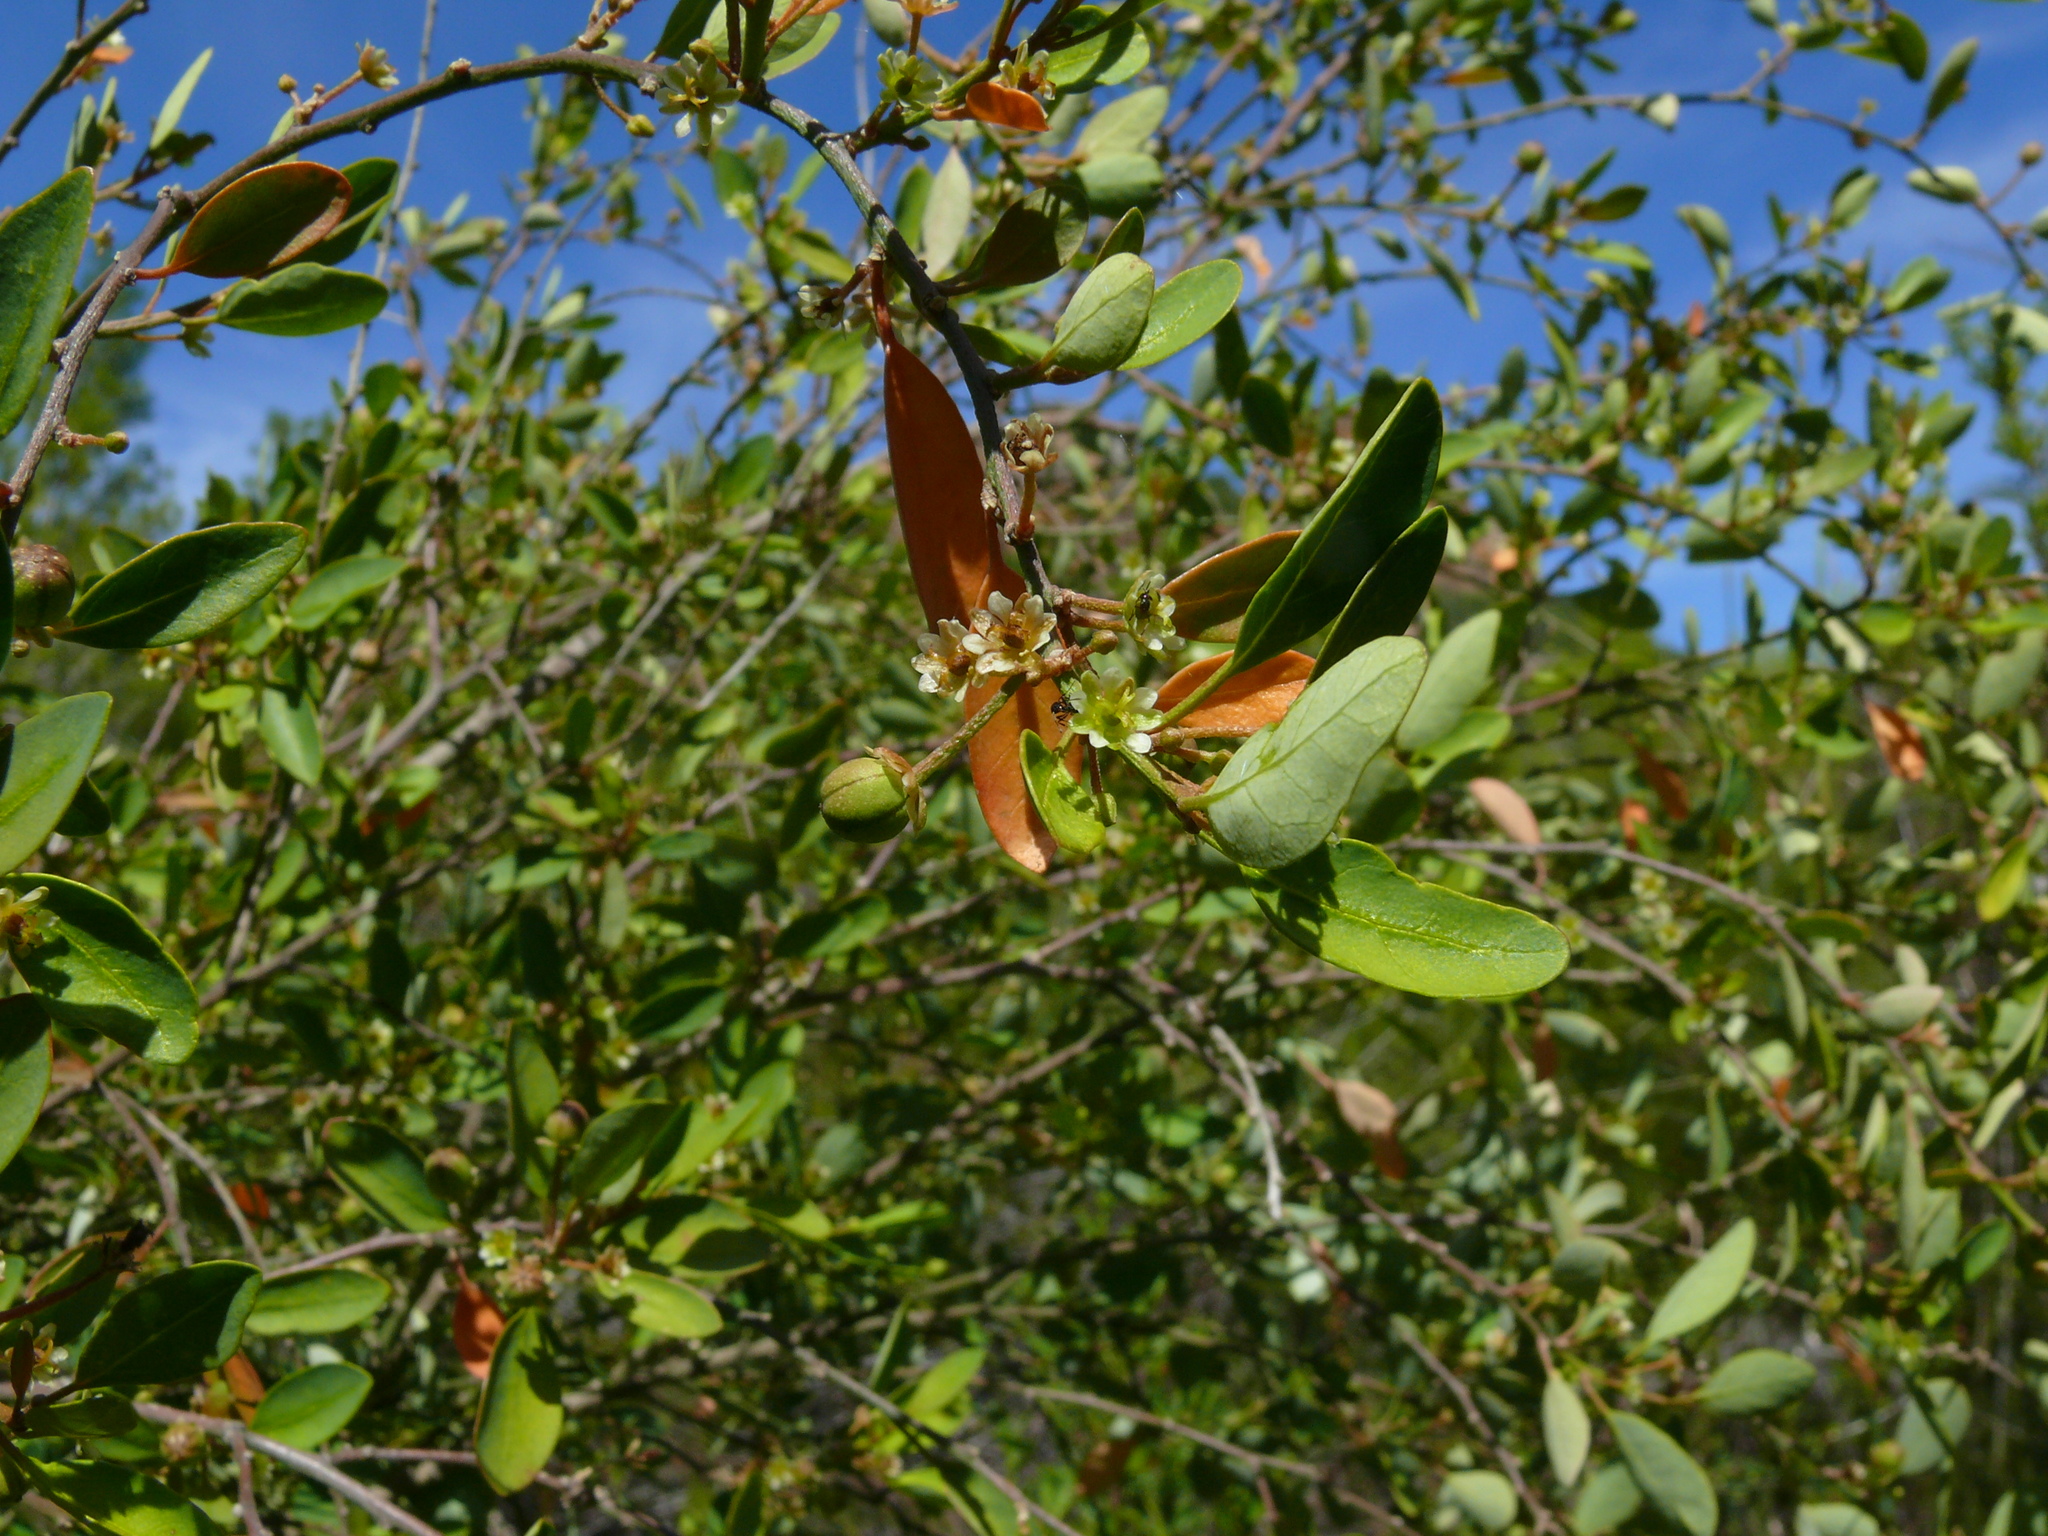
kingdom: Plantae
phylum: Tracheophyta
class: Magnoliopsida
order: Malpighiales
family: Peraceae
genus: Clutia
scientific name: Clutia pulchella
